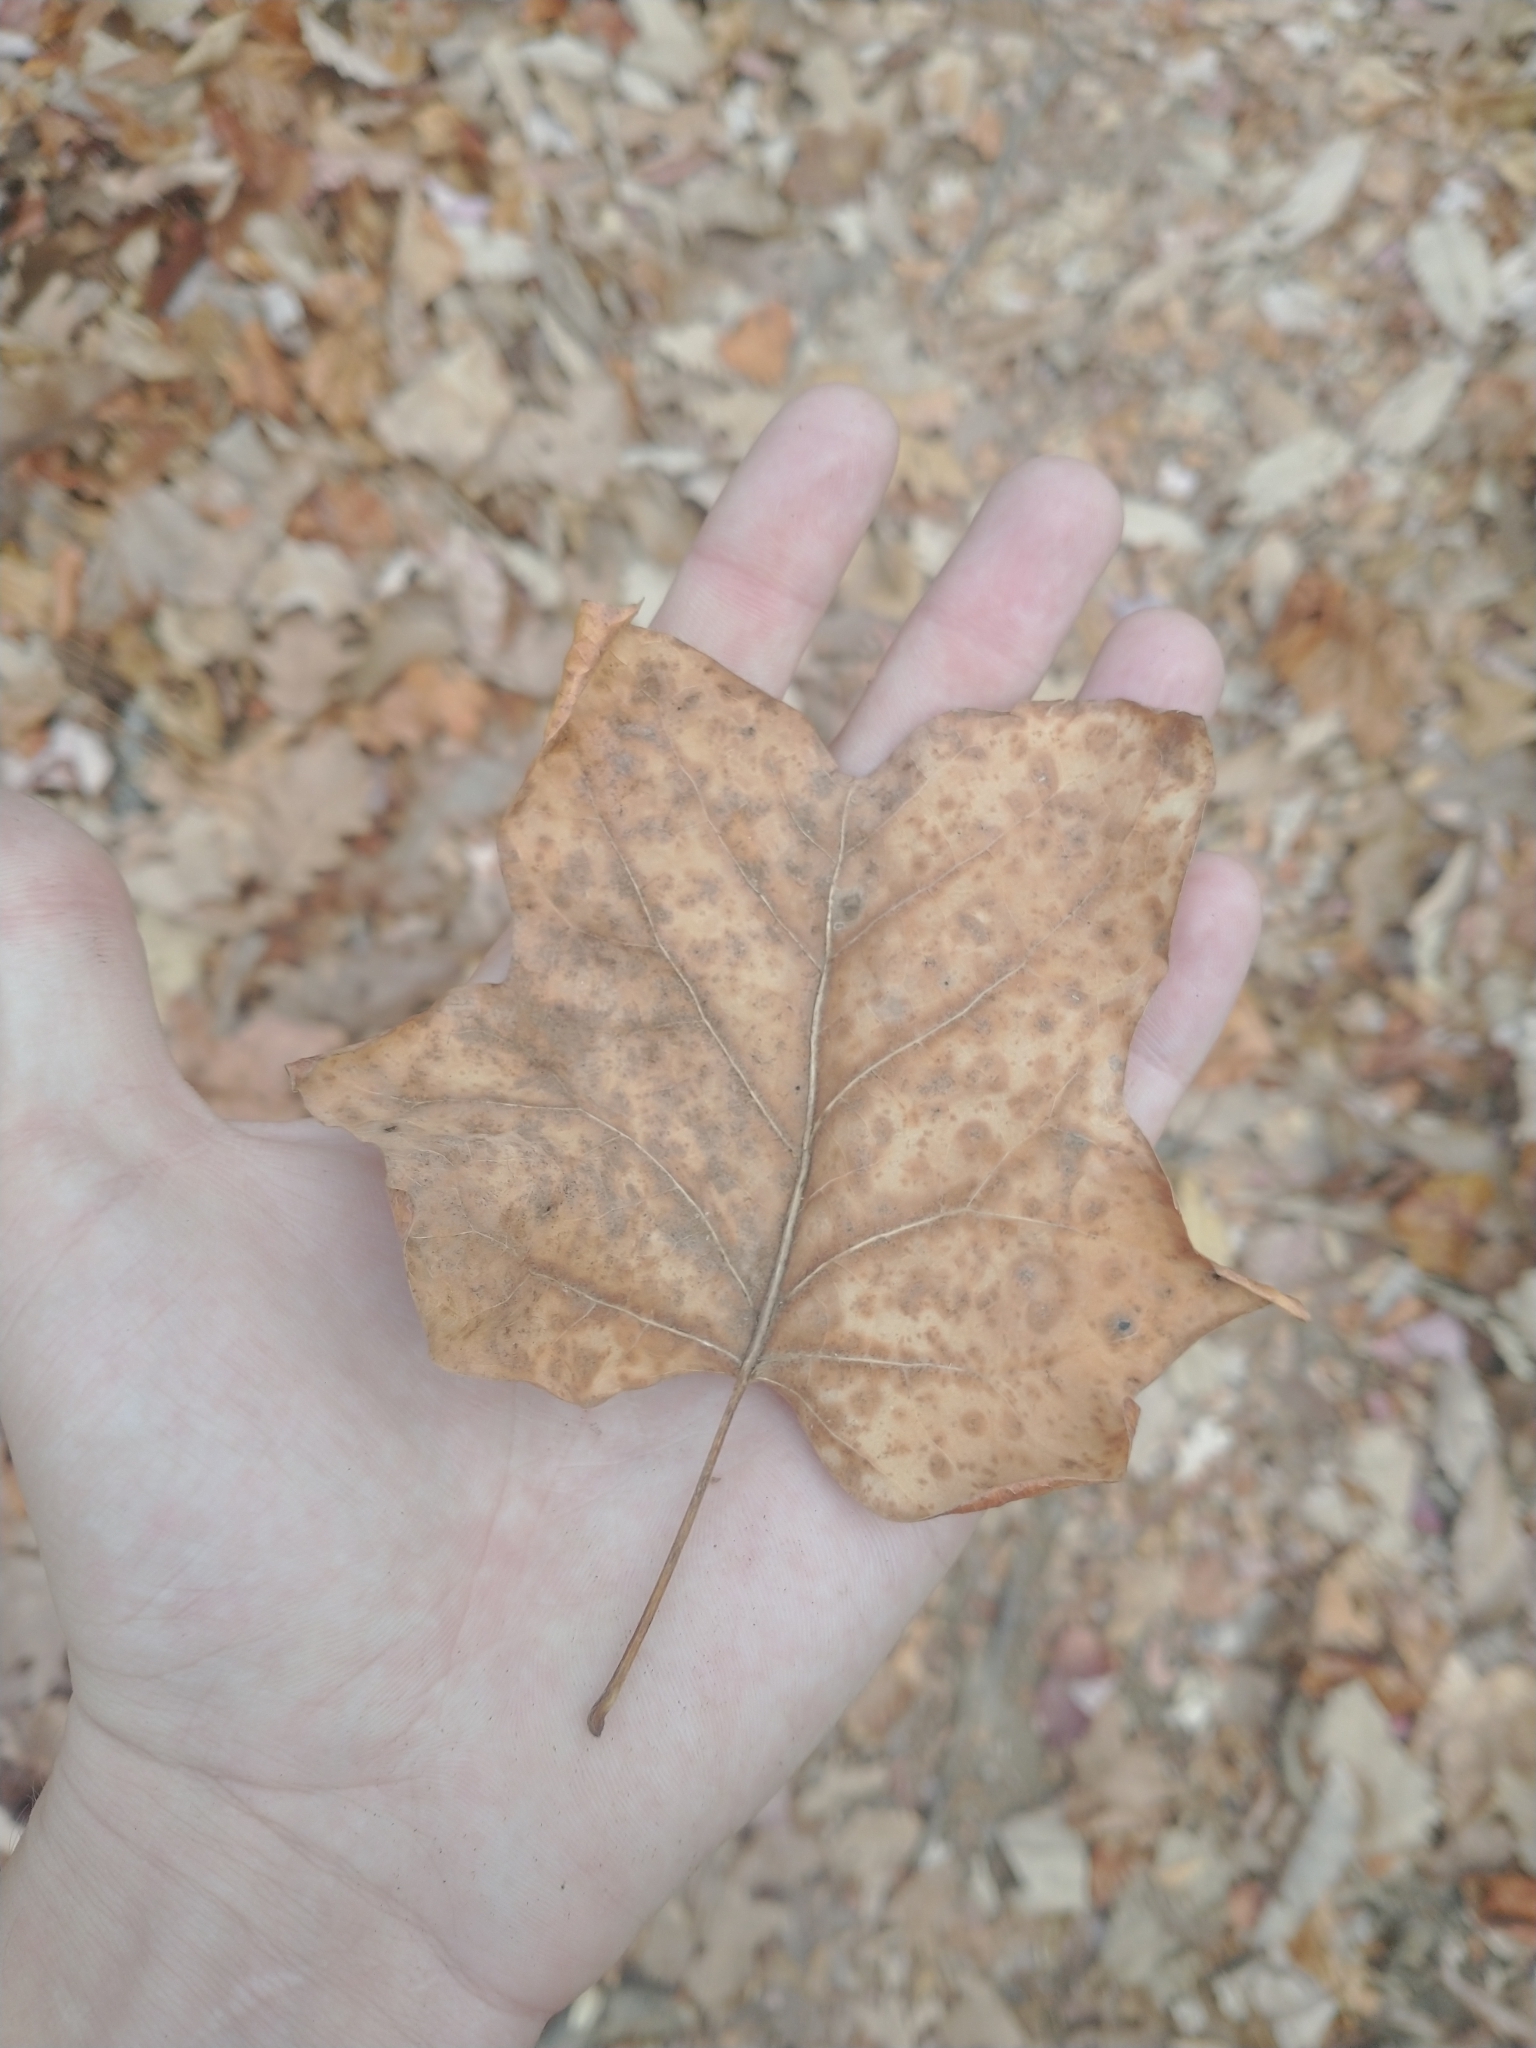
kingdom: Plantae
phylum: Tracheophyta
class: Magnoliopsida
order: Magnoliales
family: Magnoliaceae
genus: Liriodendron
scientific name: Liriodendron tulipifera
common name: Tulip tree
